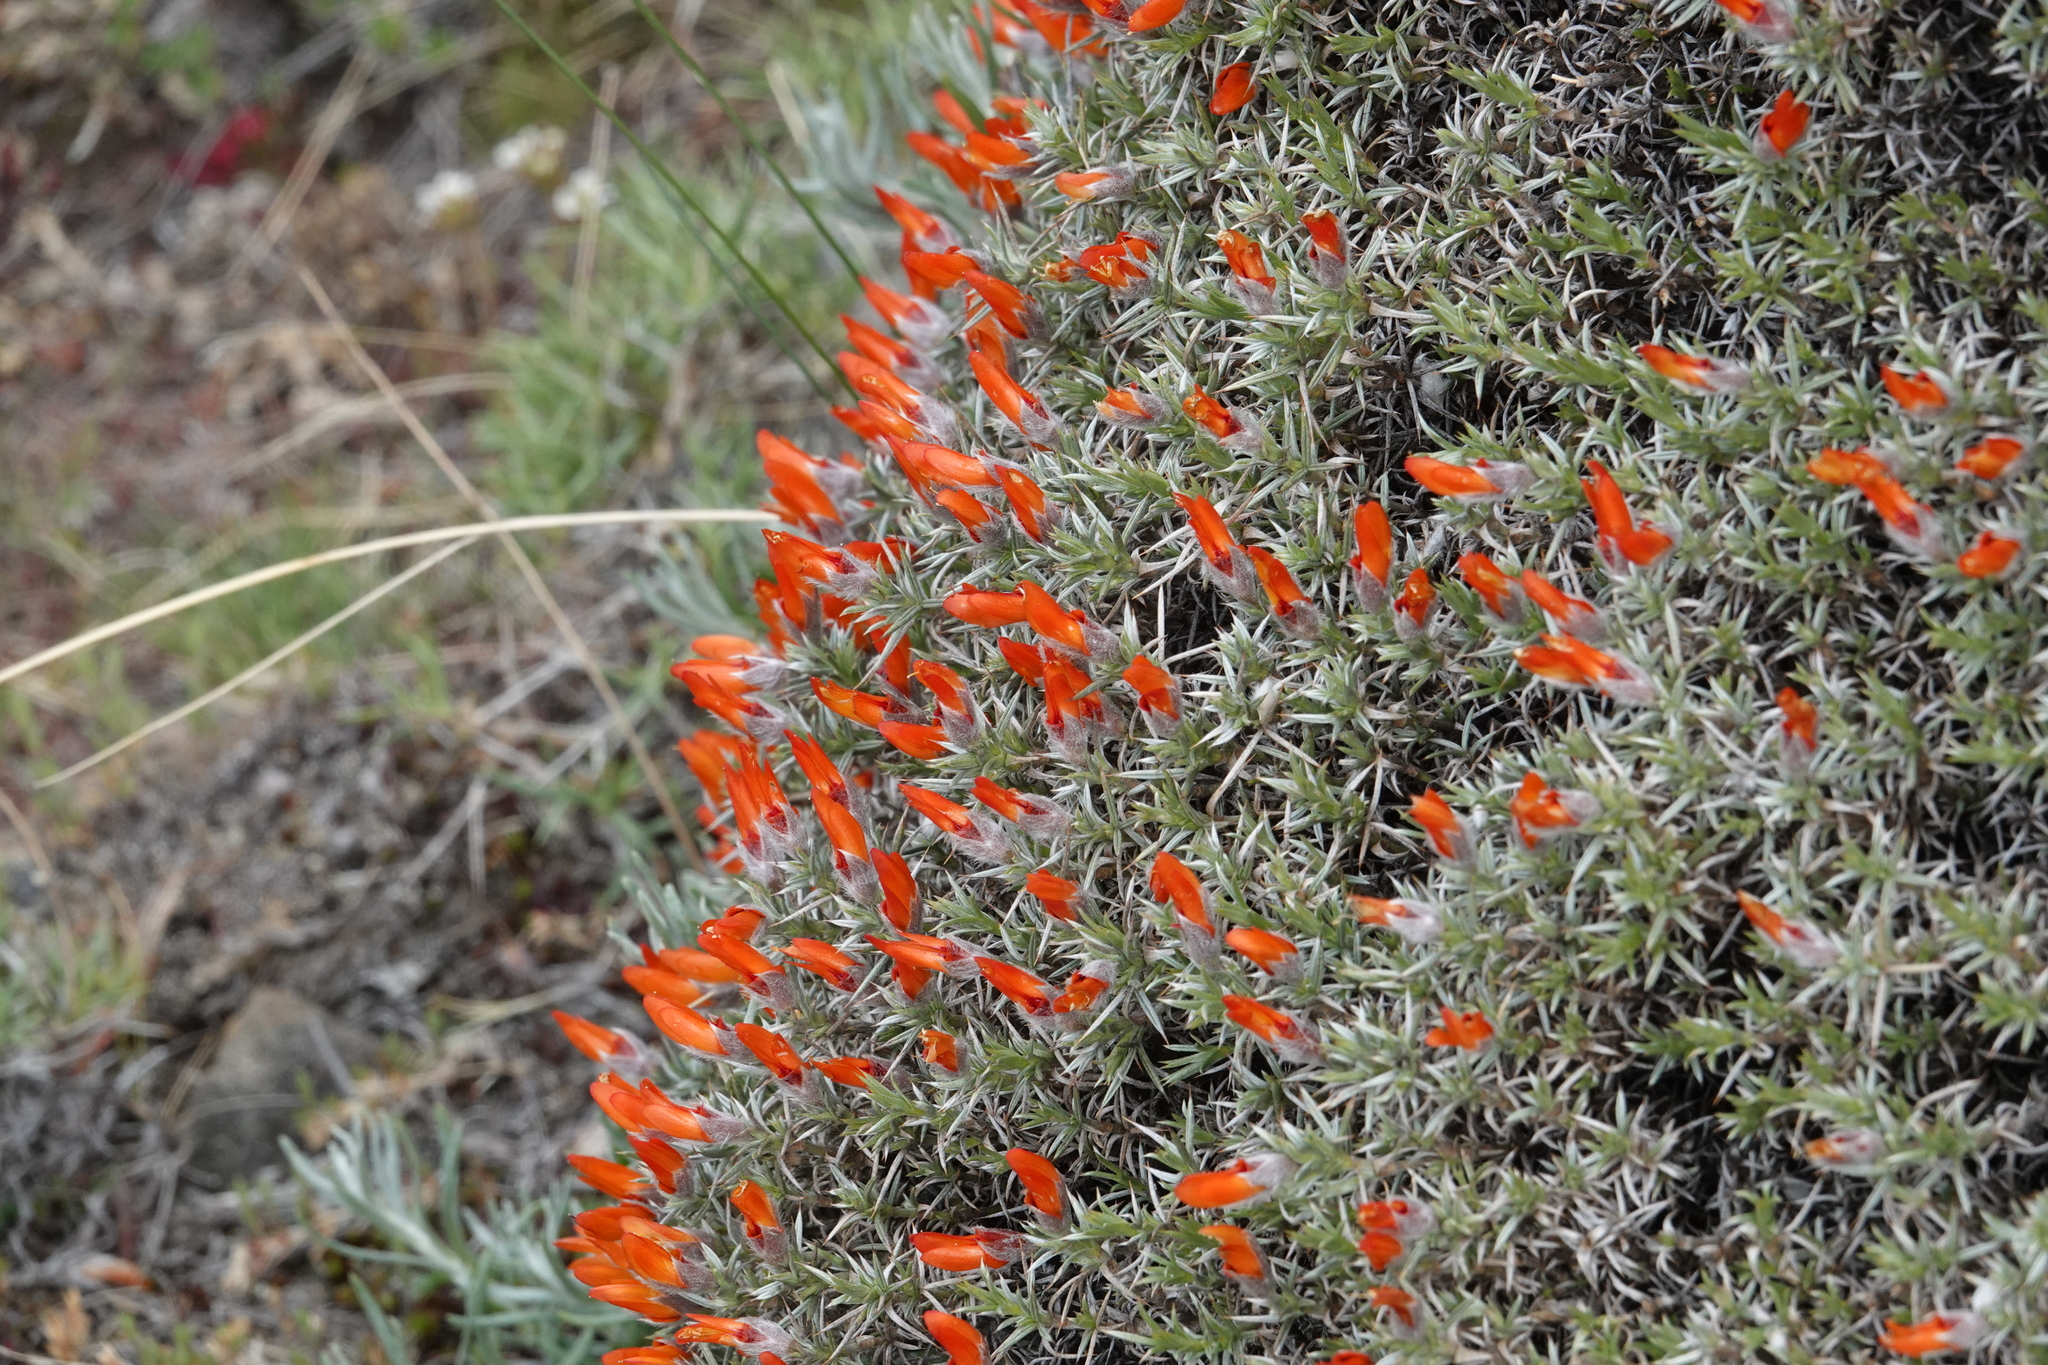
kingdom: Plantae
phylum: Tracheophyta
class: Magnoliopsida
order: Fabales
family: Fabaceae
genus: Anarthrophyllum
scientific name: Anarthrophyllum desideratum
